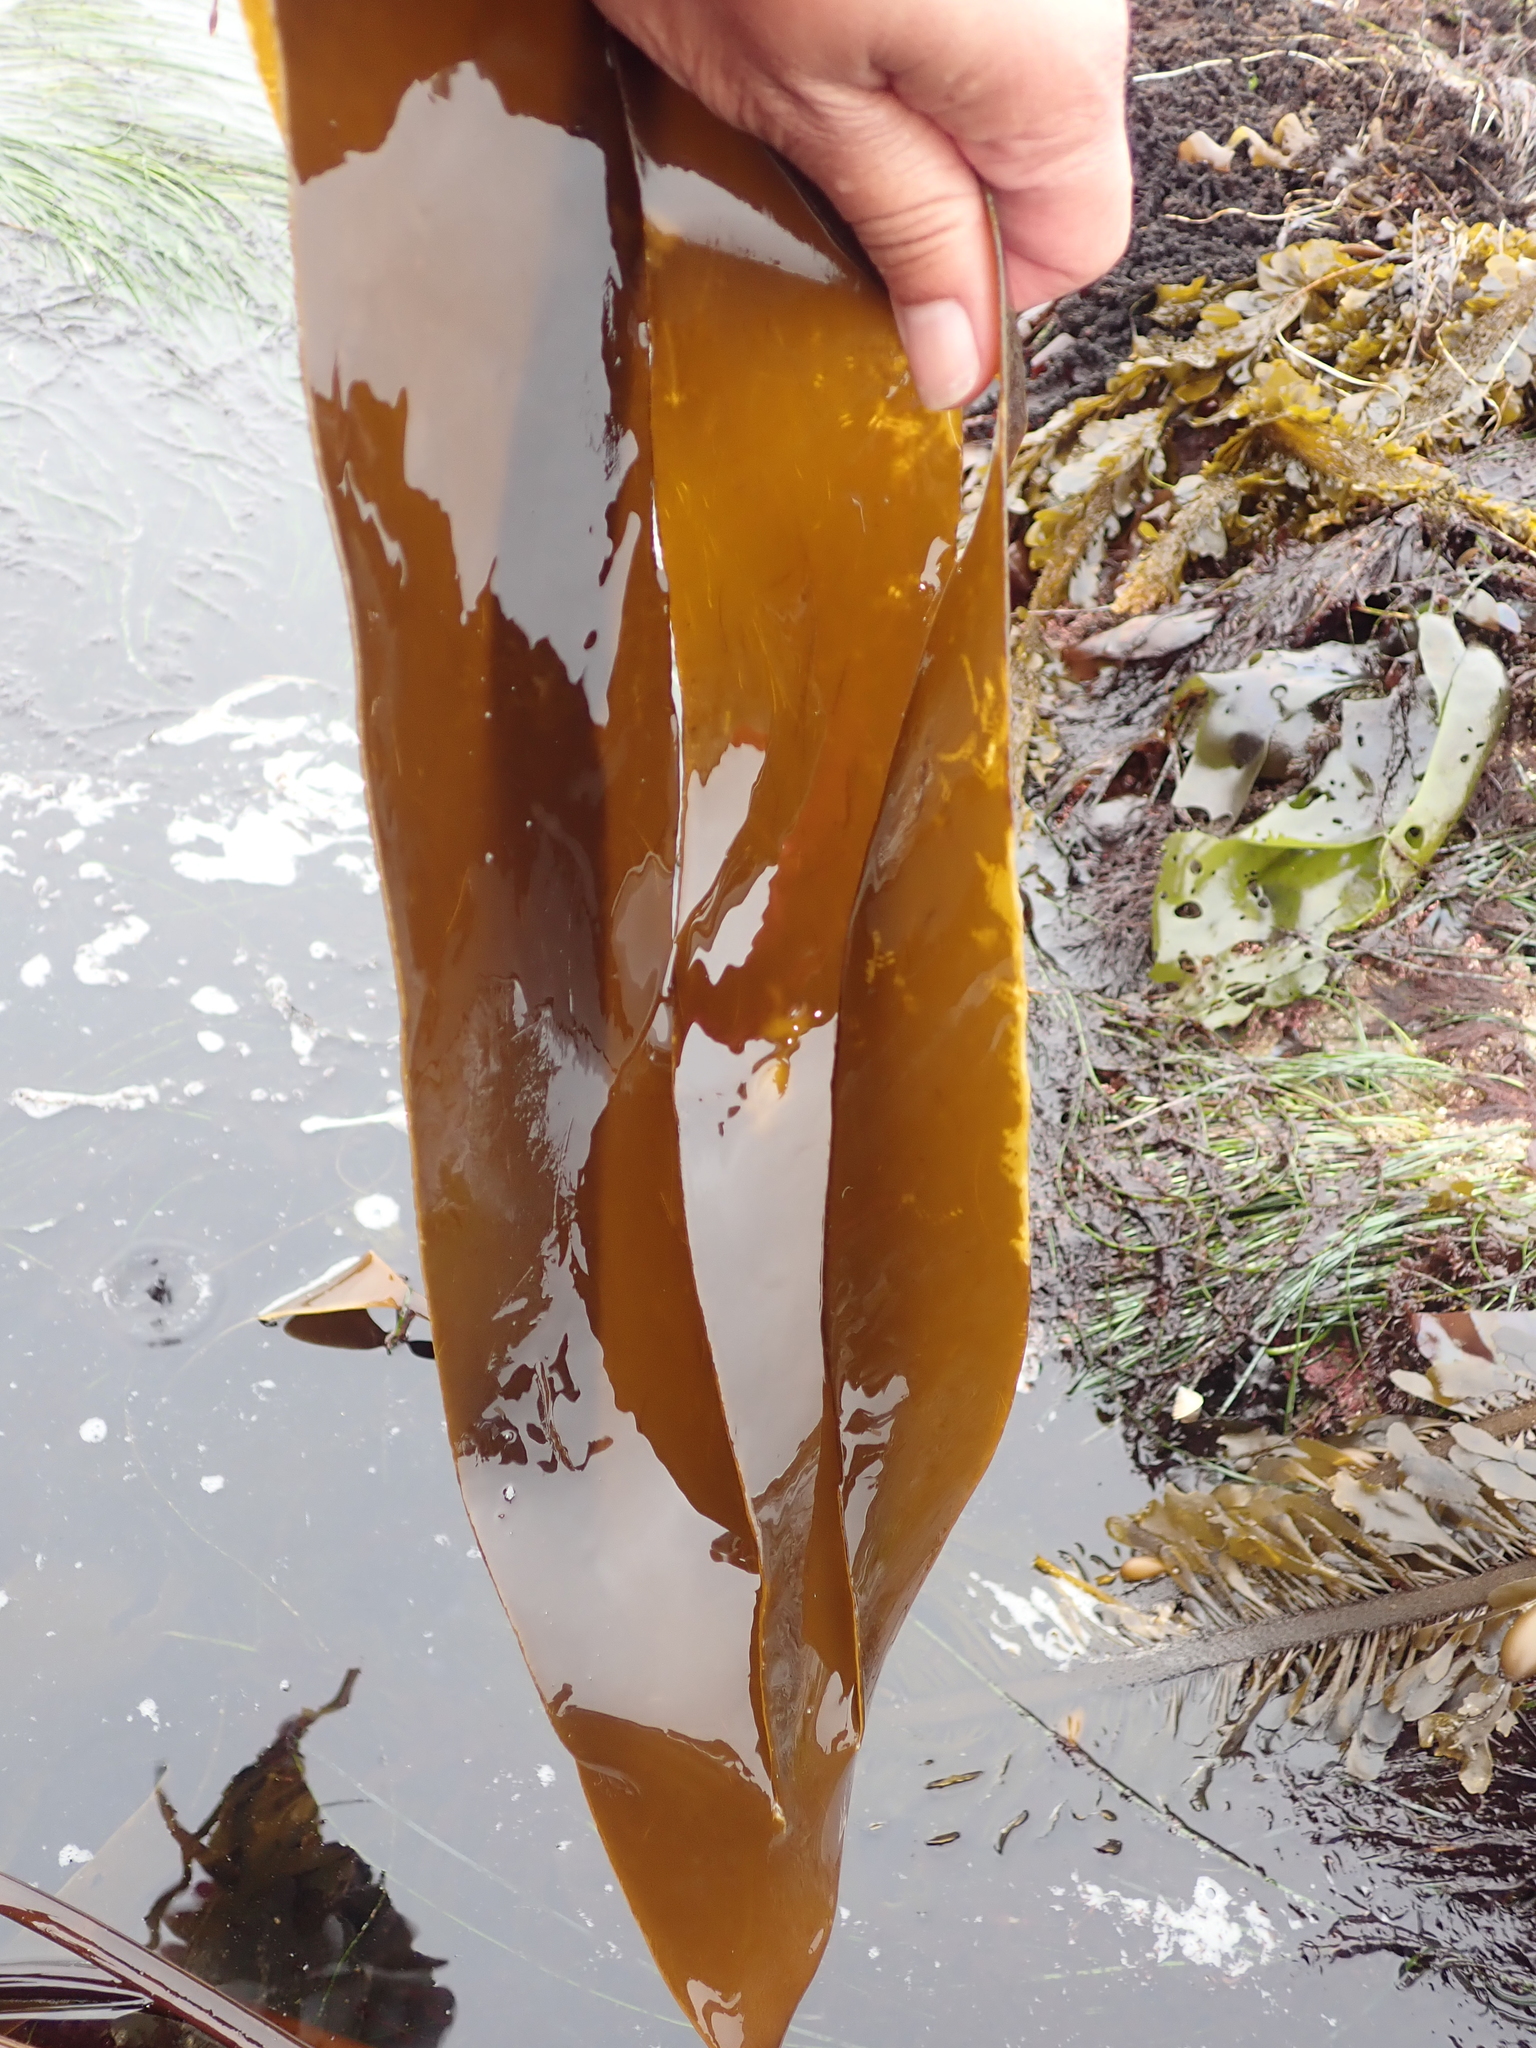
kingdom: Chromista
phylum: Ochrophyta
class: Phaeophyceae
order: Laminariales
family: Laminariaceae
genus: Laminaria
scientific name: Laminaria setchellii
